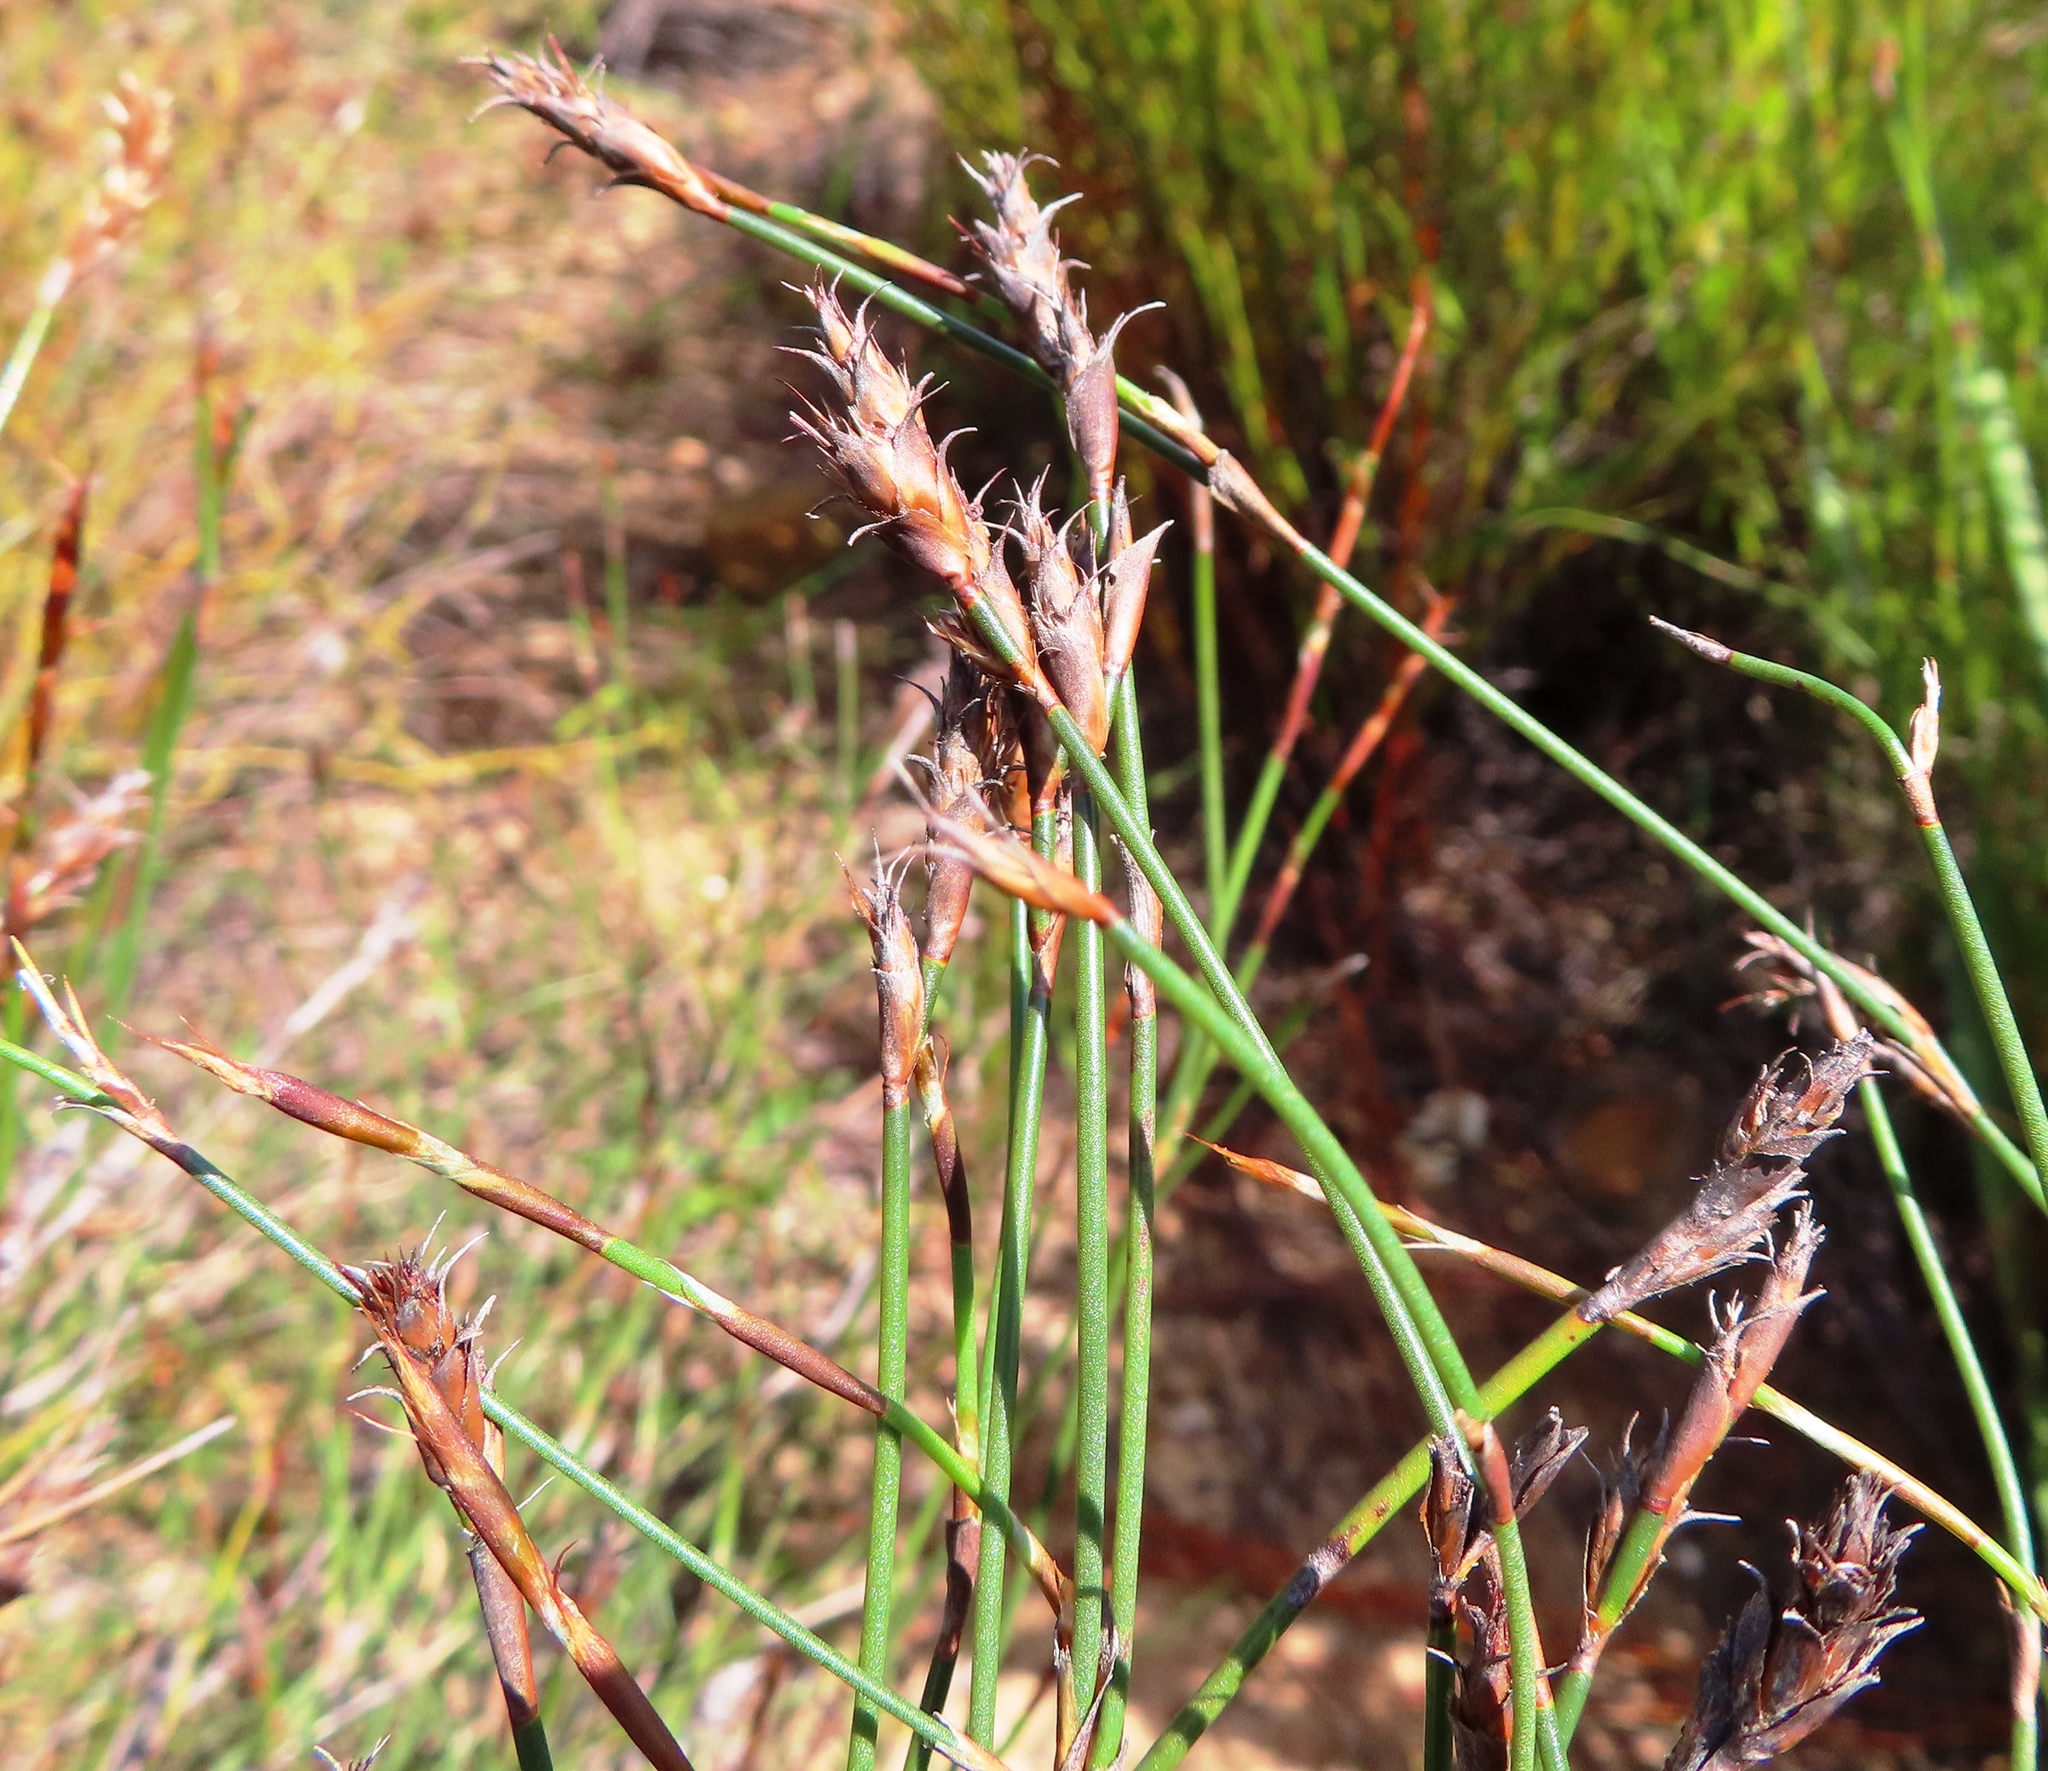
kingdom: Plantae
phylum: Tracheophyta
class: Liliopsida
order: Poales
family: Restionaceae
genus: Restio
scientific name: Restio capensis
